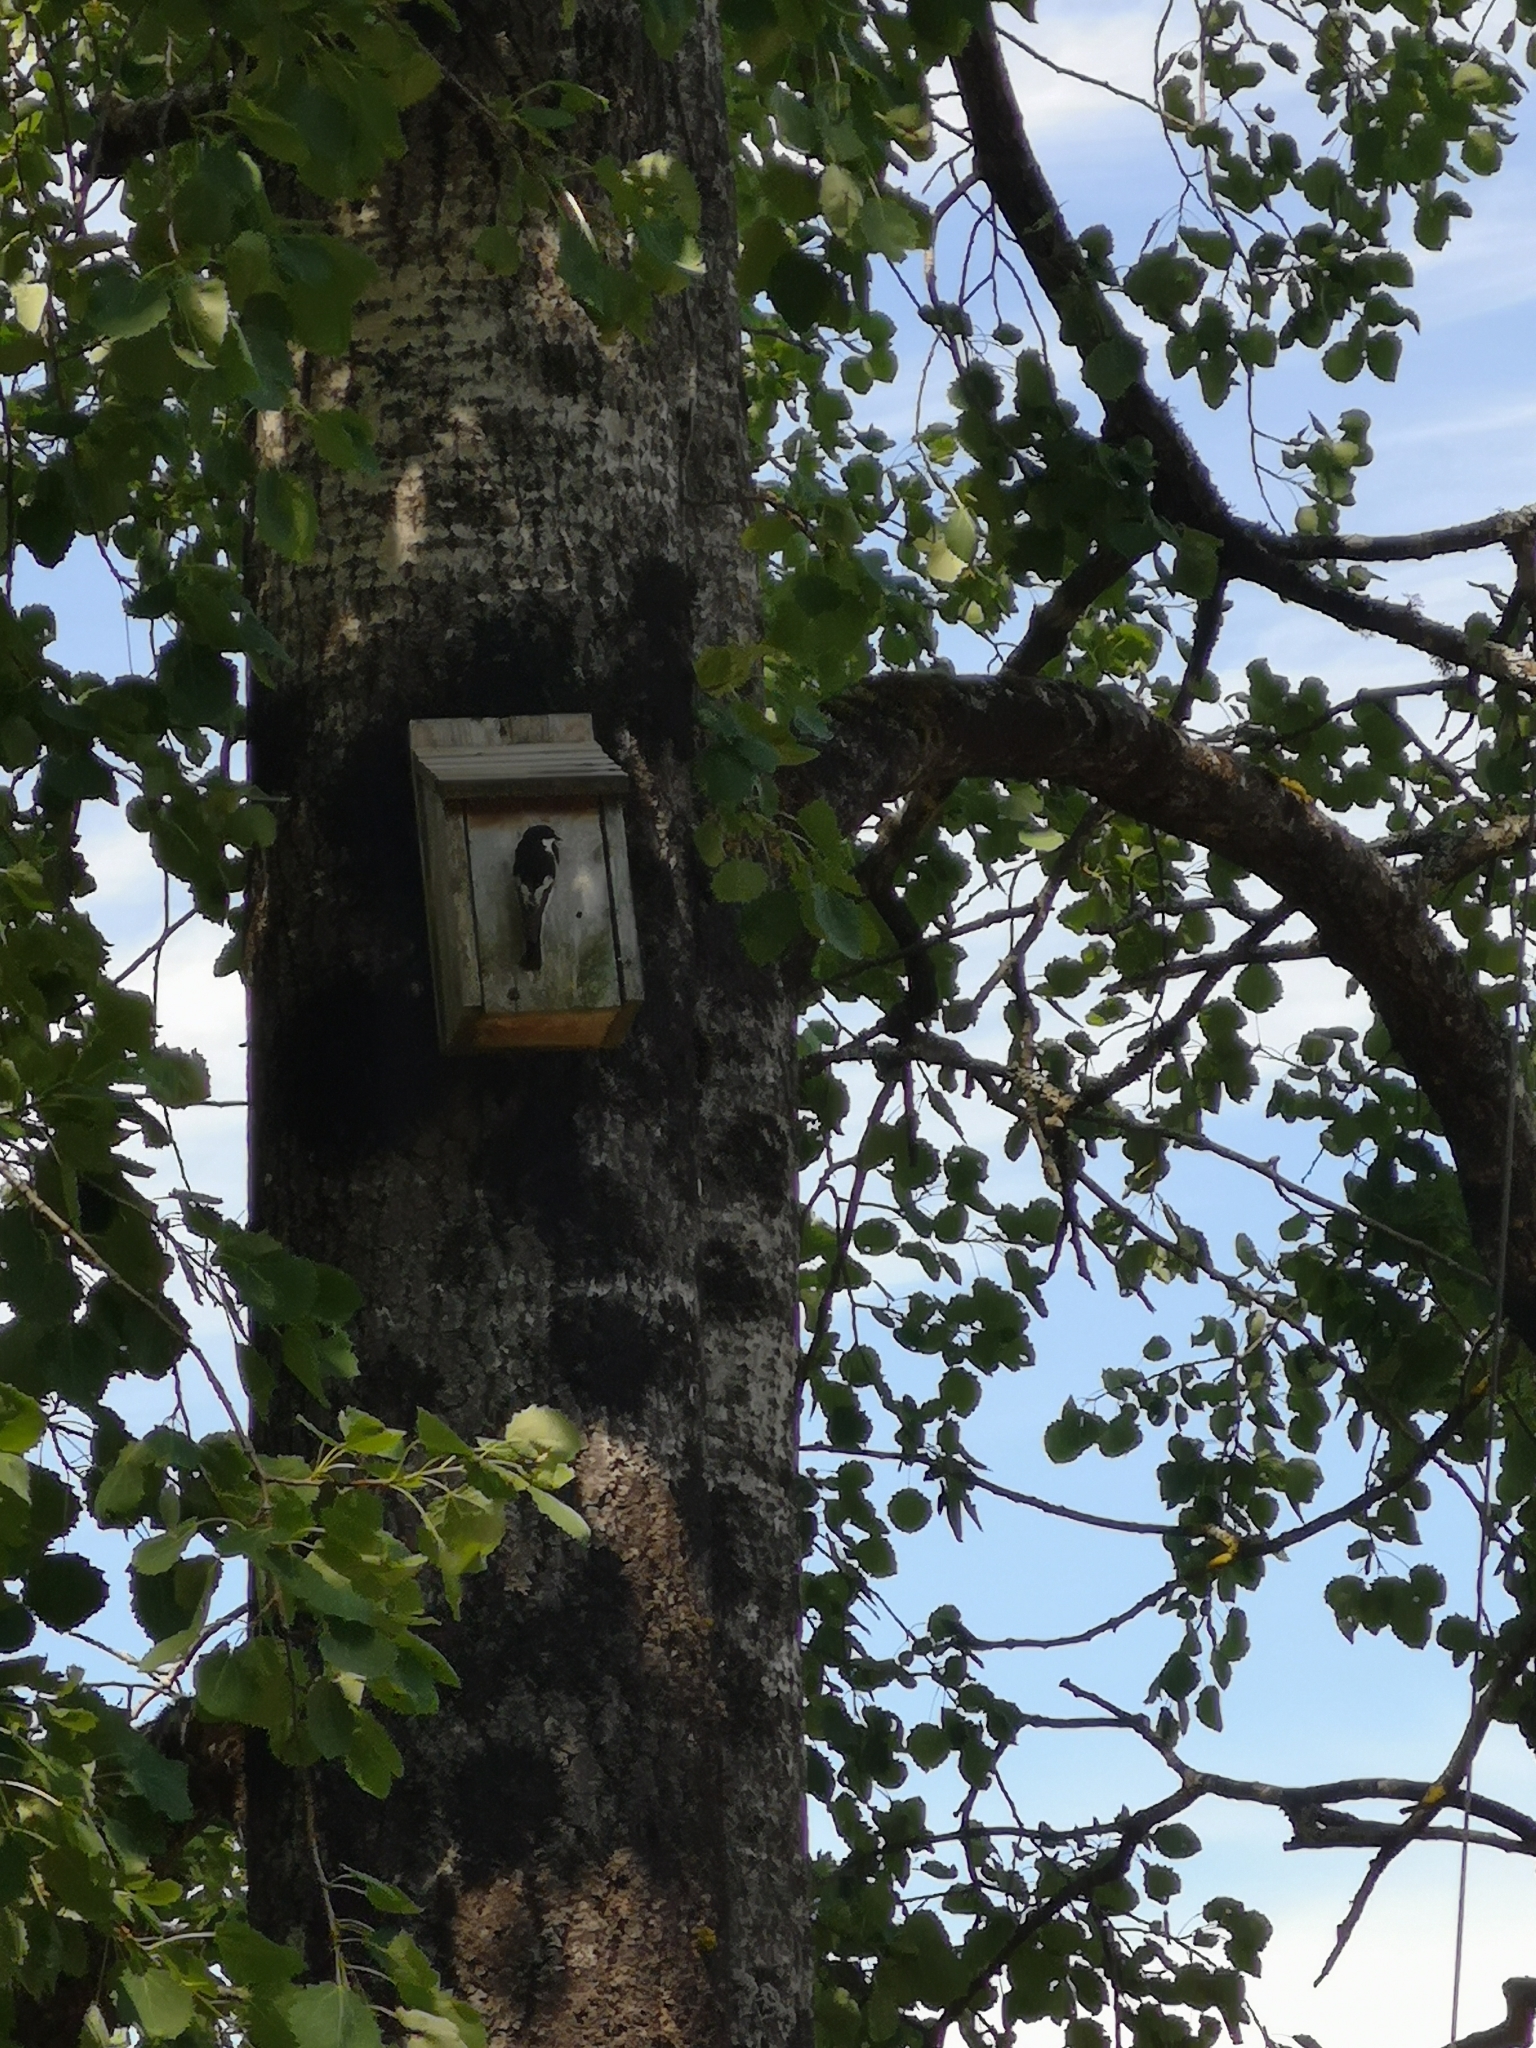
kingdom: Animalia
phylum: Chordata
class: Aves
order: Passeriformes
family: Muscicapidae
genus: Ficedula
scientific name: Ficedula hypoleuca
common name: European pied flycatcher
